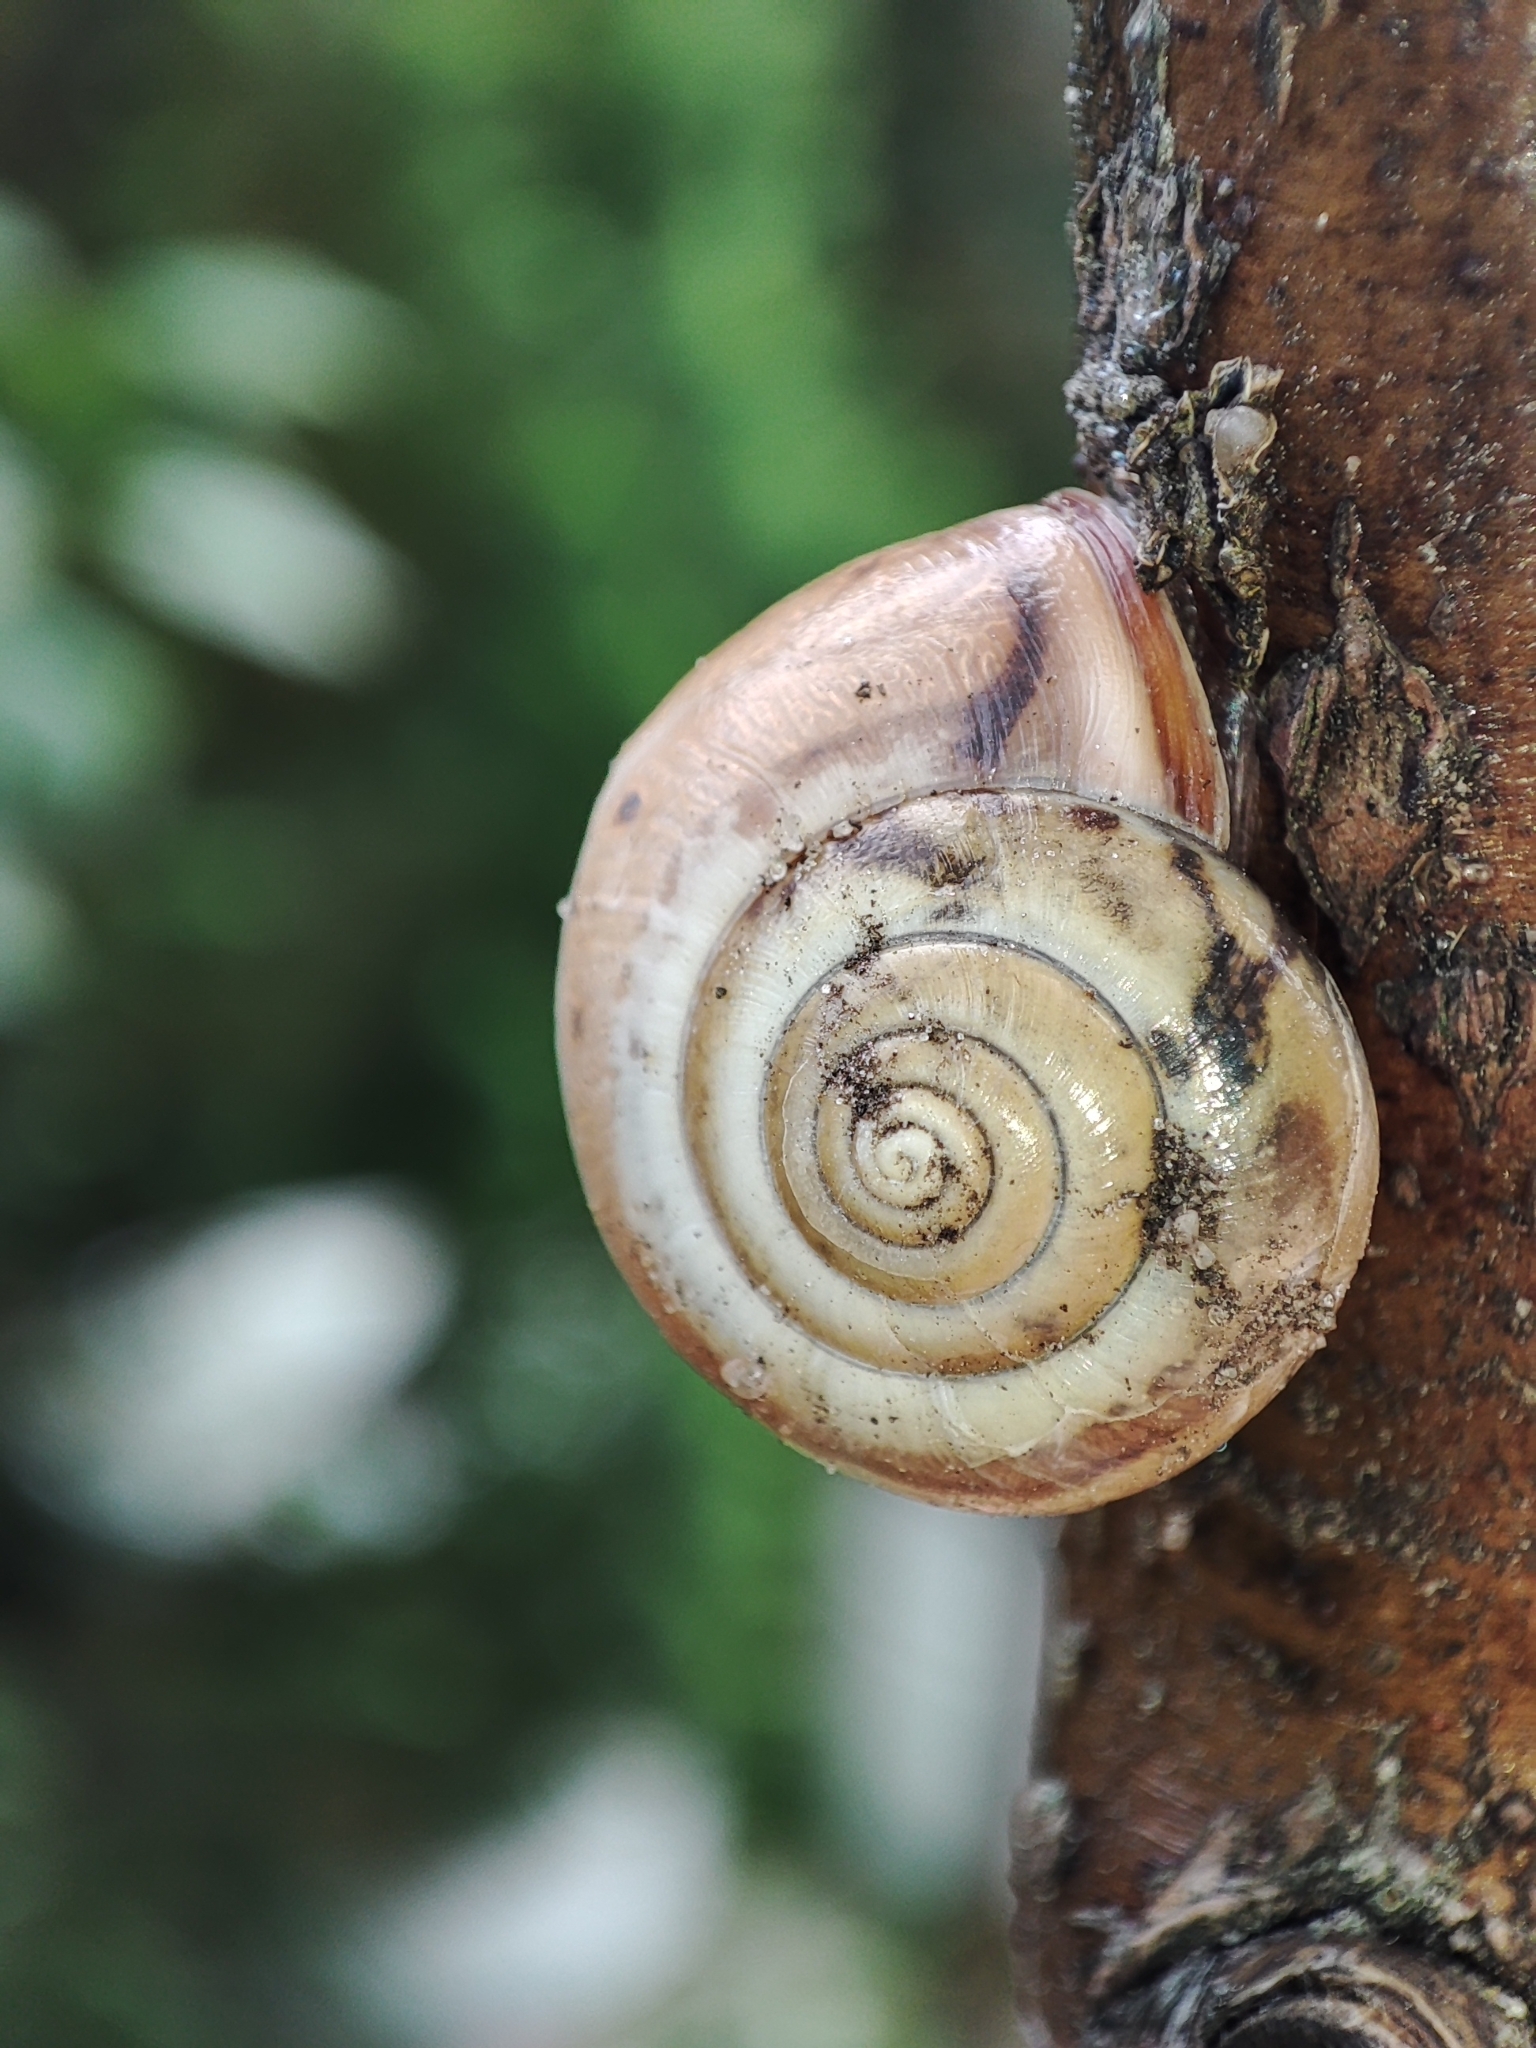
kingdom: Animalia
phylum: Mollusca
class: Gastropoda
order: Stylommatophora
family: Hygromiidae
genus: Monacha
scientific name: Monacha cartusiana
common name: Carthusian snail
